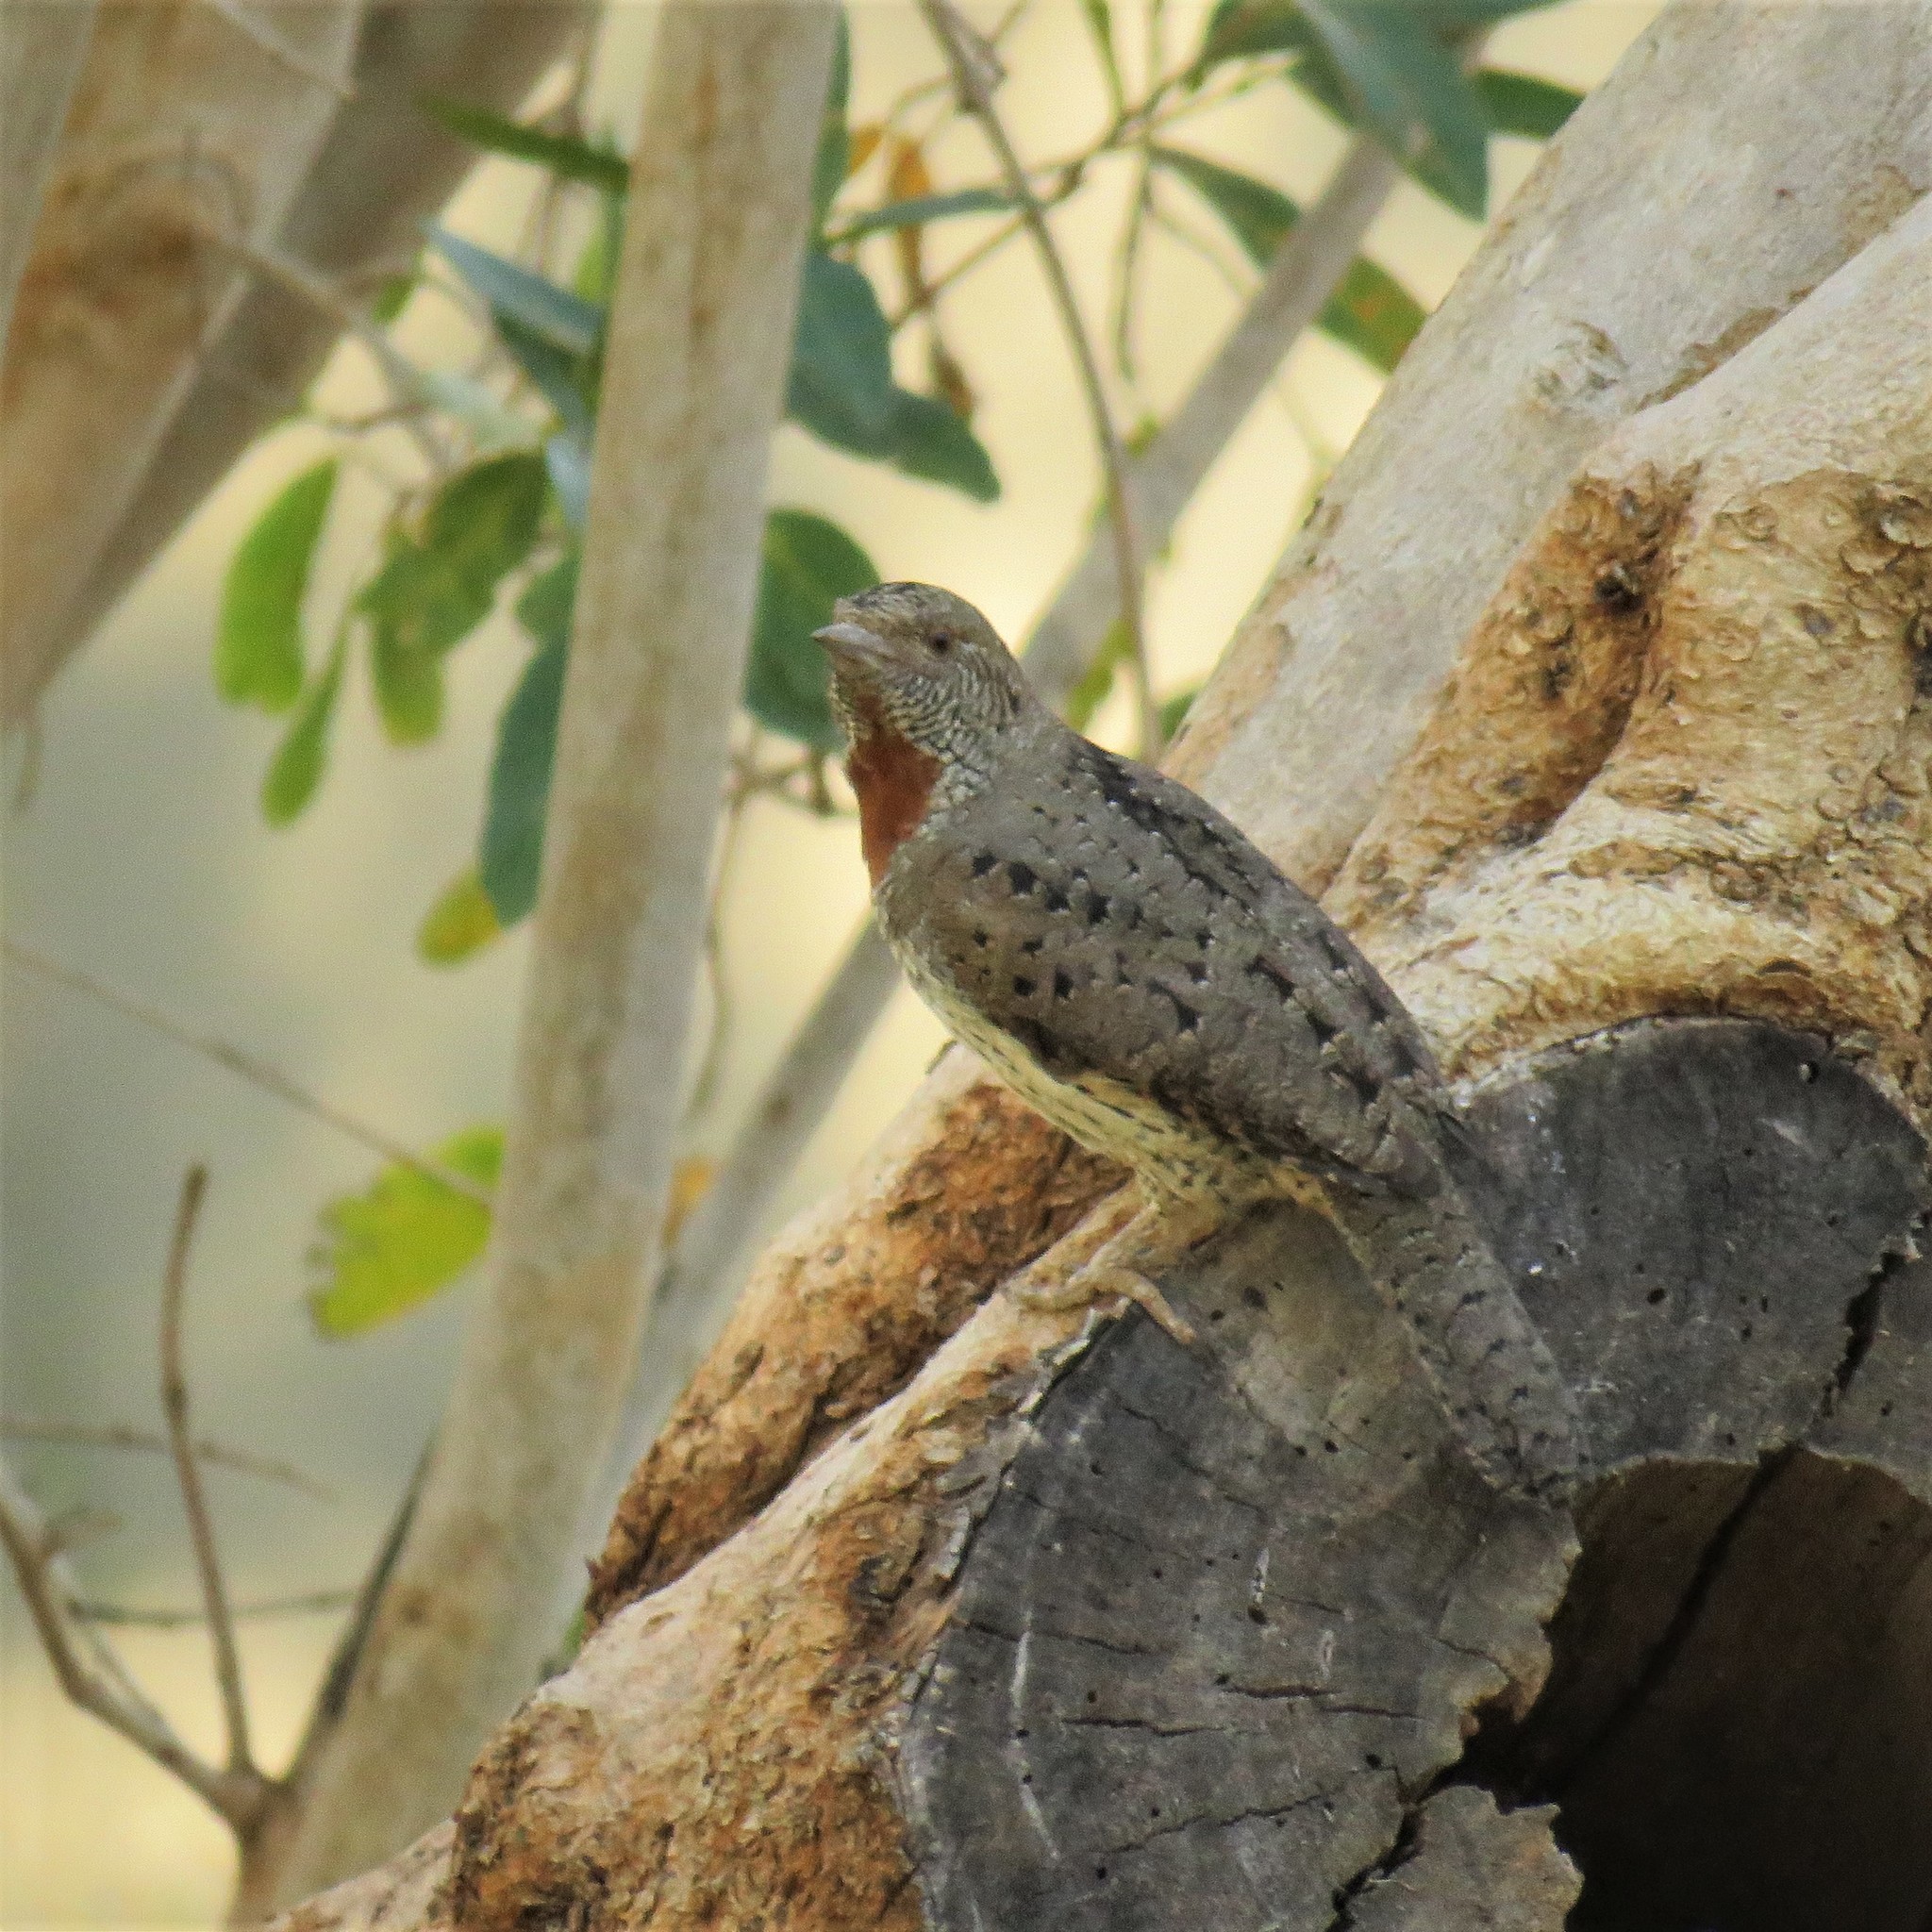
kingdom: Animalia
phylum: Chordata
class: Aves
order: Piciformes
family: Picidae
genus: Jynx
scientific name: Jynx ruficollis
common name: Red-throated wryneck
